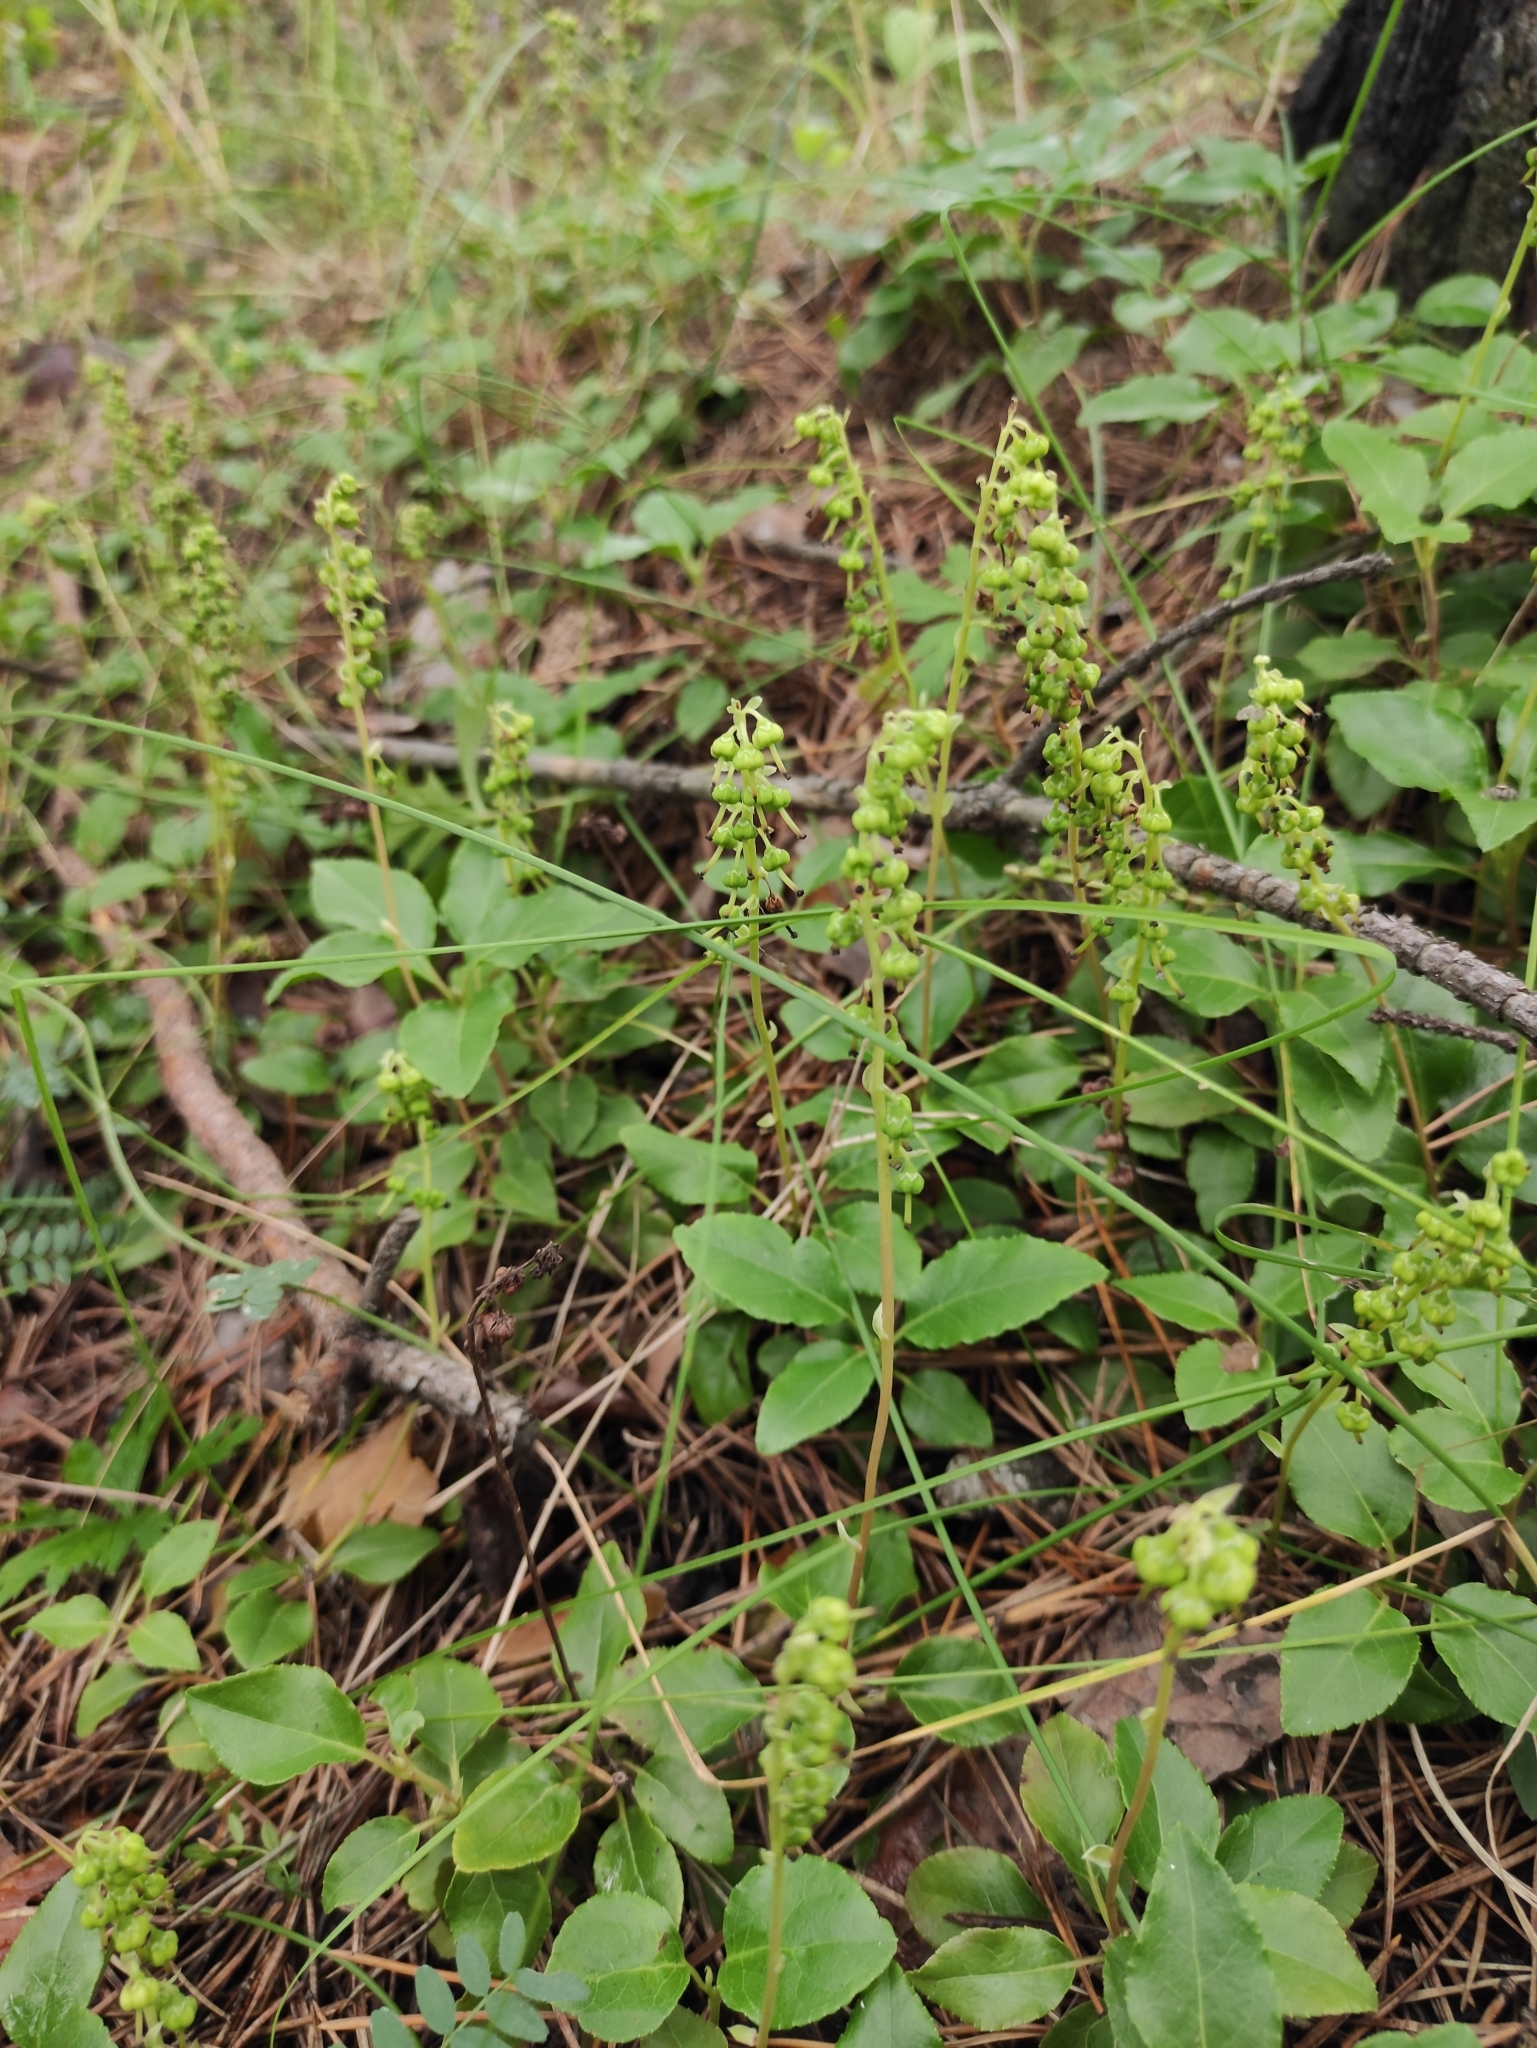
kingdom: Plantae
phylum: Tracheophyta
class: Magnoliopsida
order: Ericales
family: Ericaceae
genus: Orthilia
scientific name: Orthilia secunda
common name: One-sided orthilia
